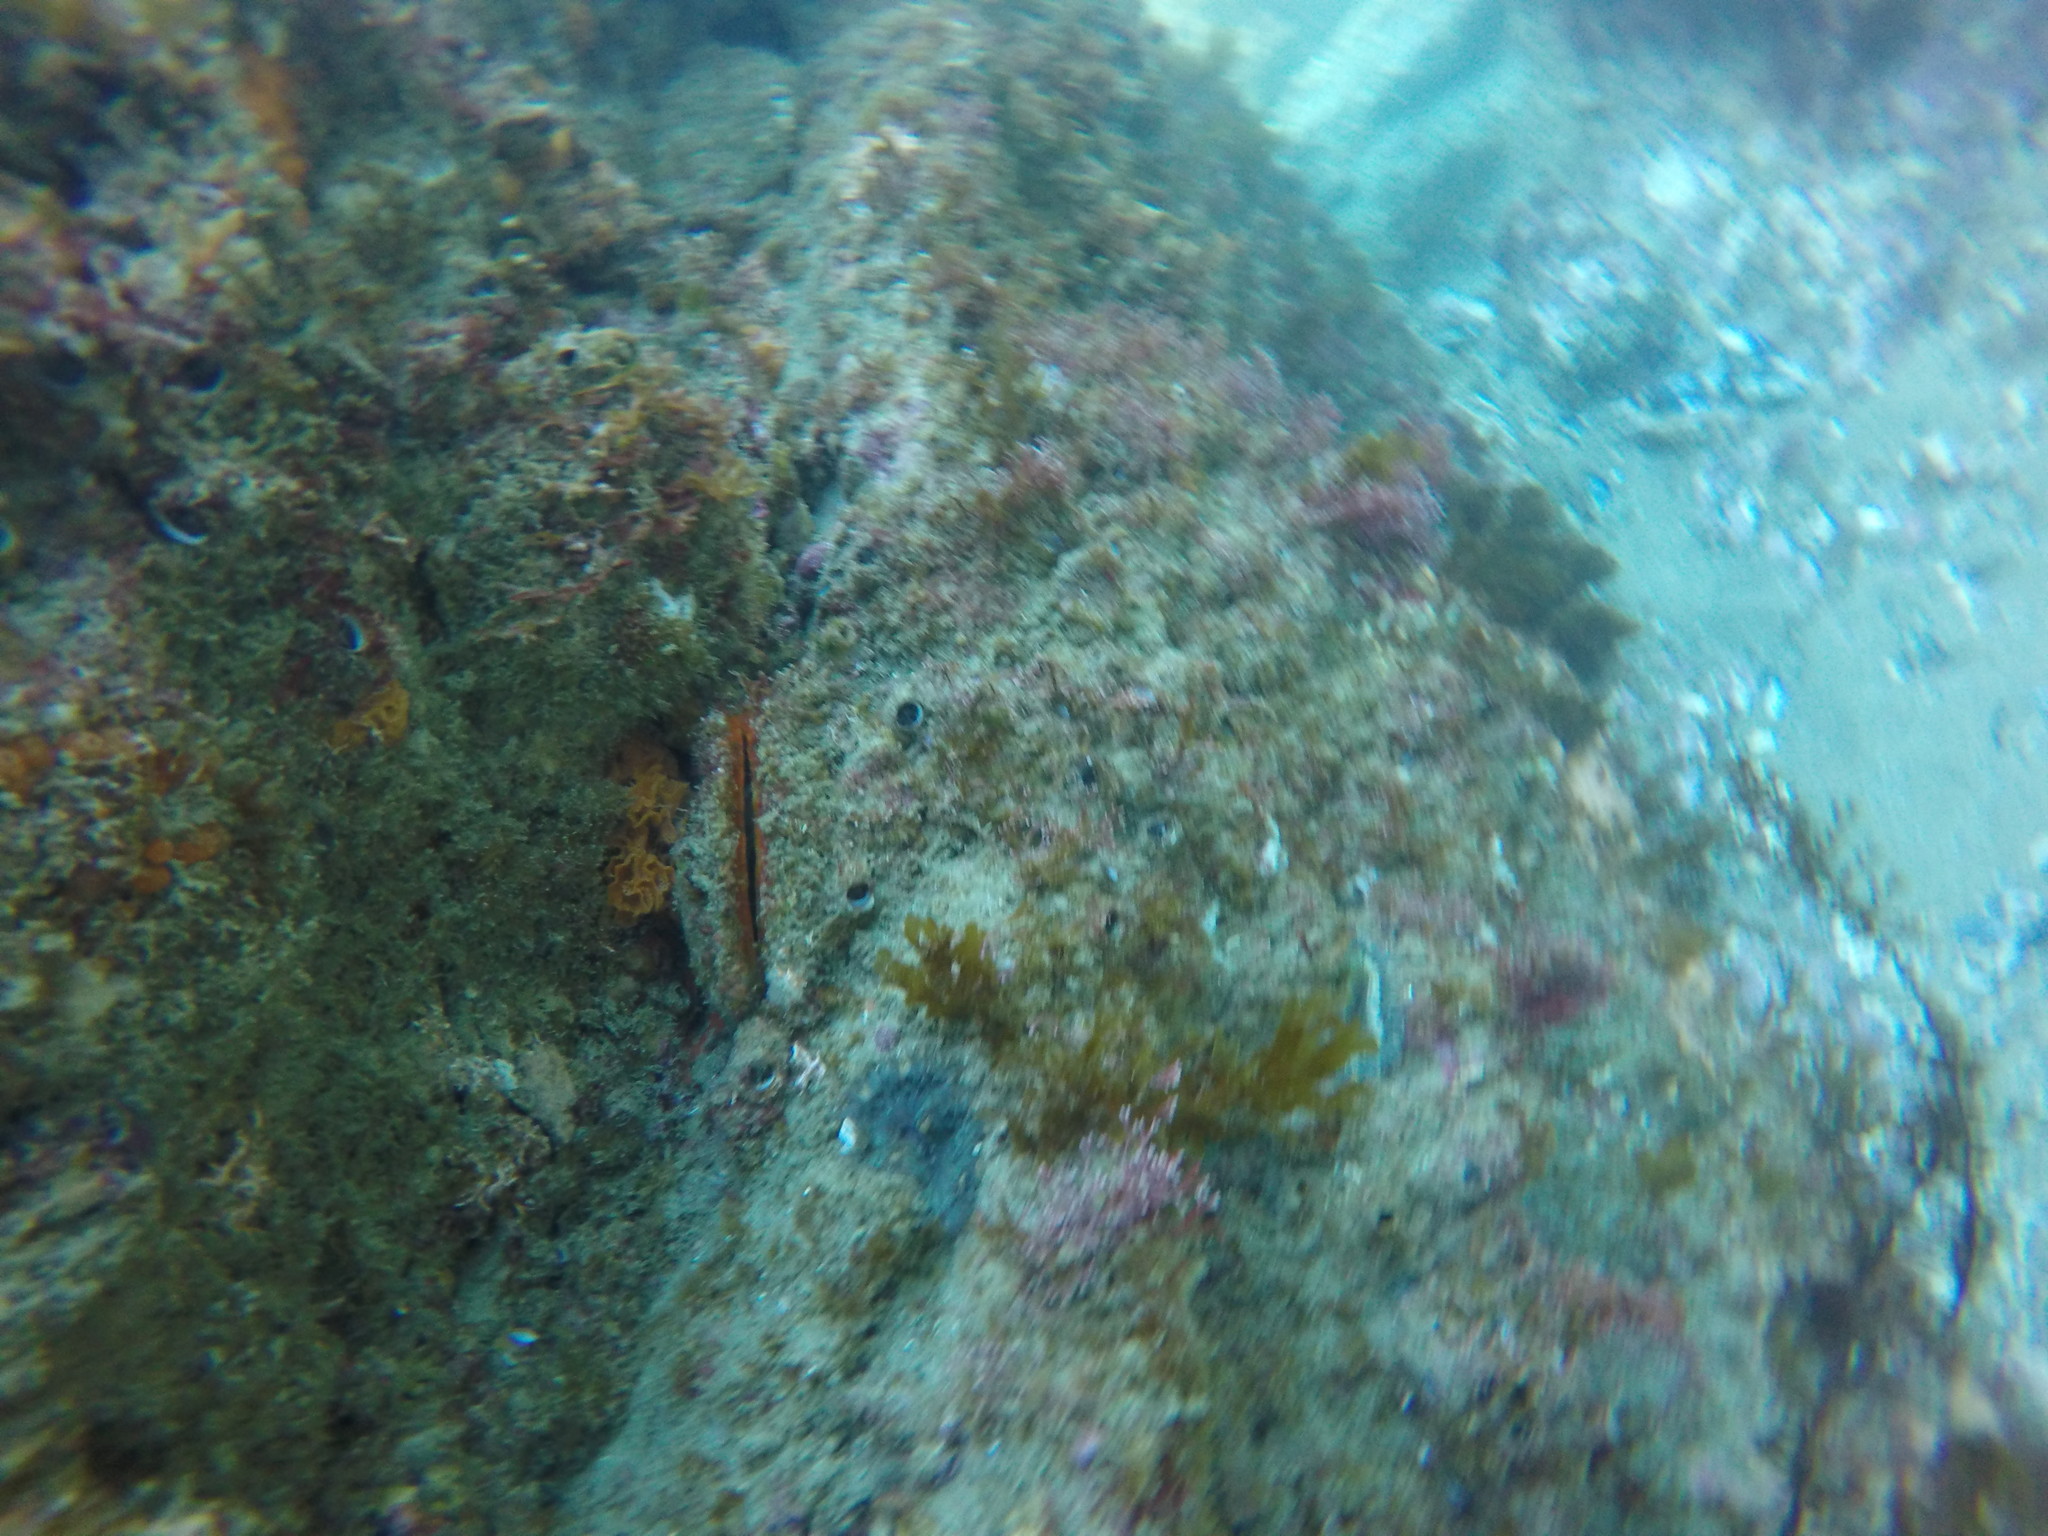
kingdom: Animalia
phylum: Mollusca
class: Bivalvia
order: Pectinida
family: Pectinidae
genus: Crassadoma
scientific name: Crassadoma gigantea
